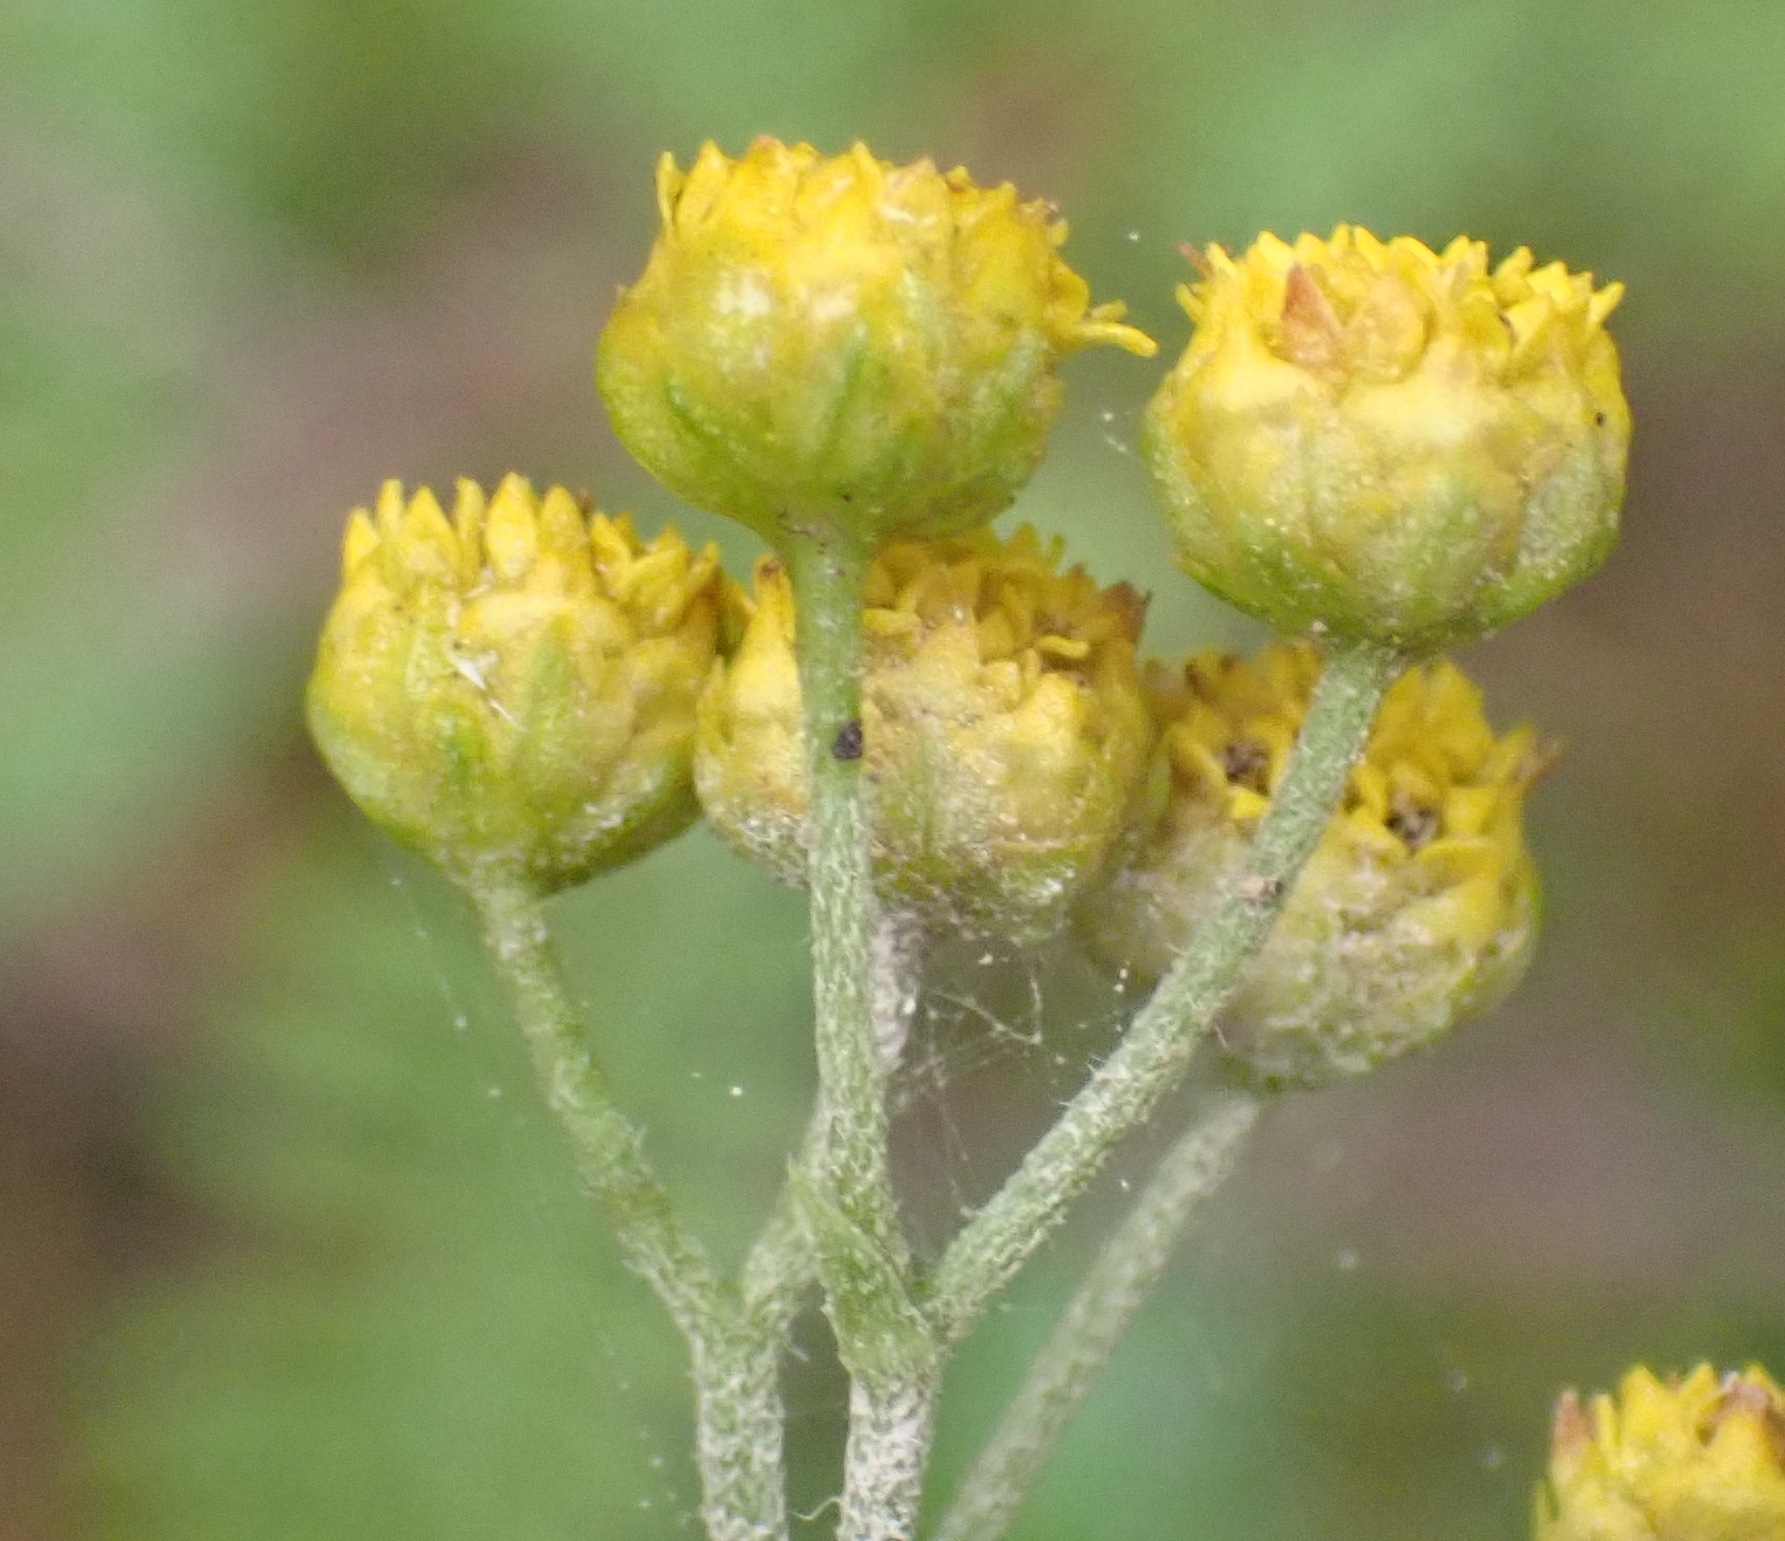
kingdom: Plantae
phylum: Tracheophyta
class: Magnoliopsida
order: Asterales
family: Asteraceae
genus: Hippia
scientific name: Hippia frutescens
